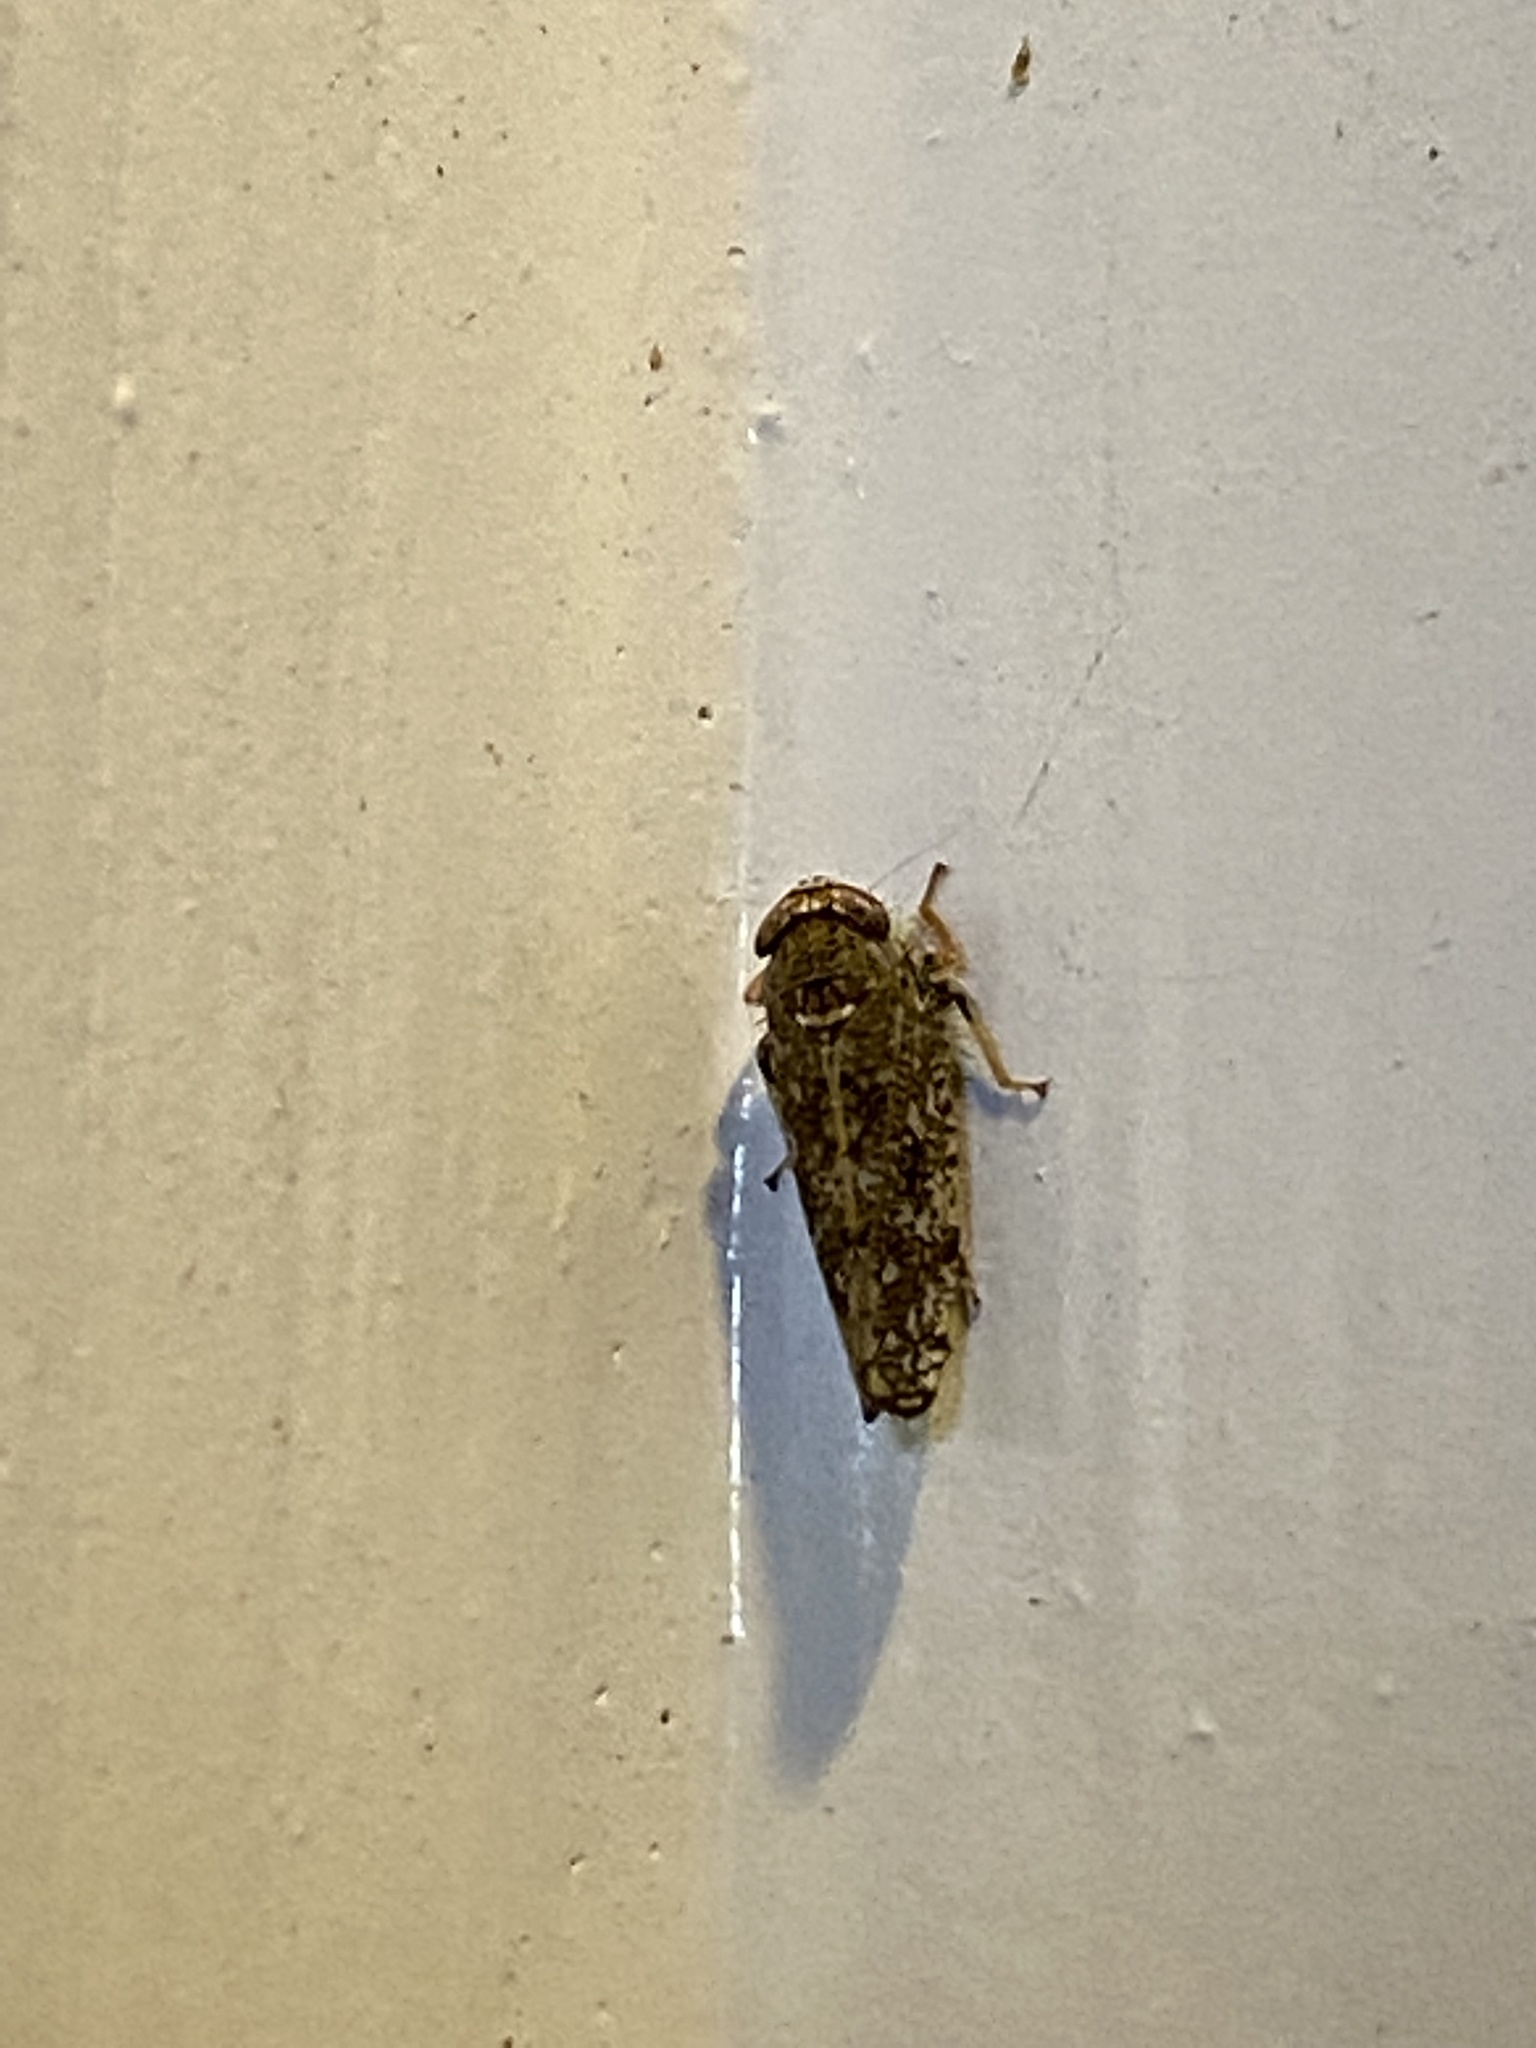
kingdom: Animalia
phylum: Arthropoda
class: Insecta
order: Hemiptera
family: Cicadellidae
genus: Orientus
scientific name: Orientus ishidae
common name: Japanese leafhopper
